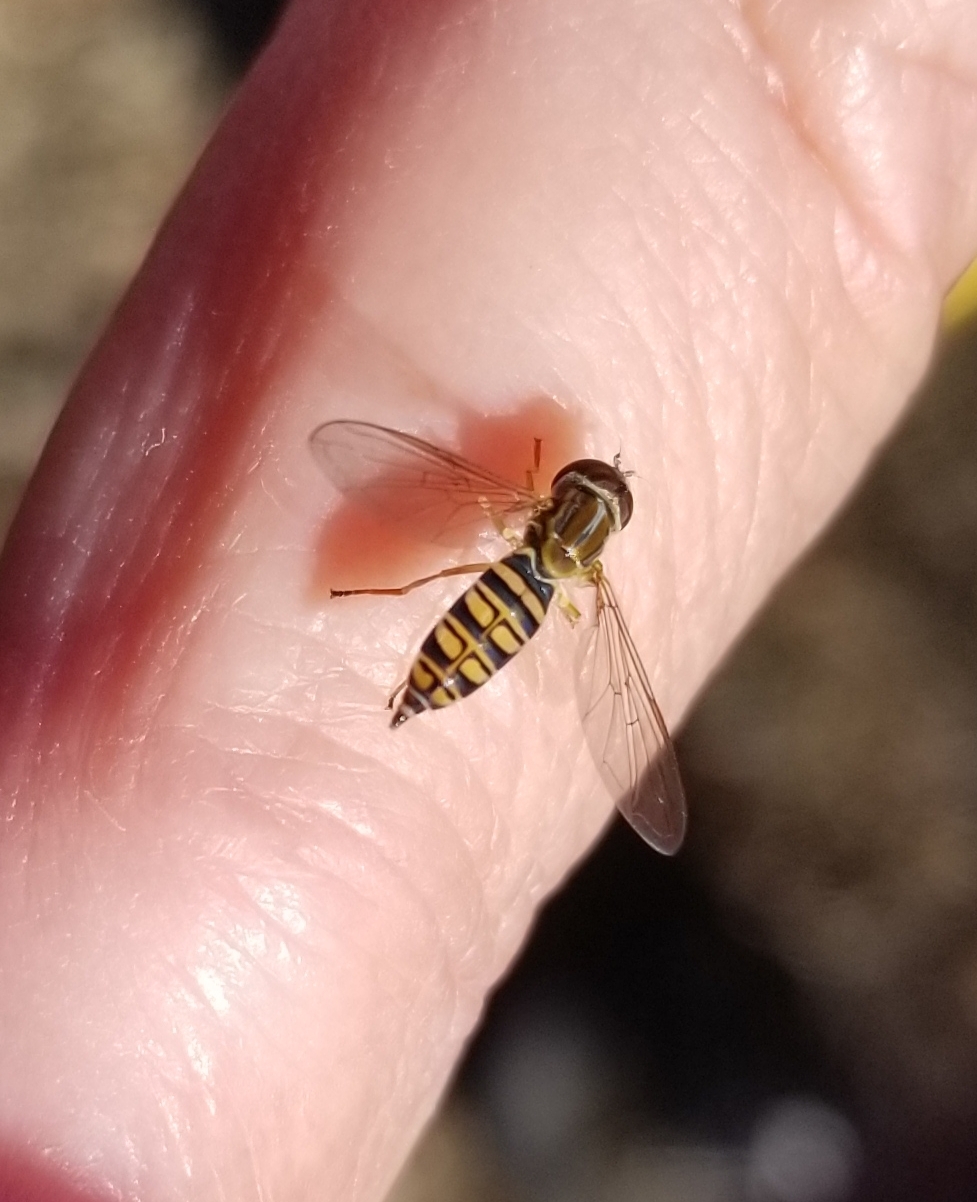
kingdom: Animalia
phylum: Arthropoda
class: Insecta
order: Diptera
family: Syrphidae
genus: Toxomerus
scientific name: Toxomerus politus
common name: Maize calligrapher
